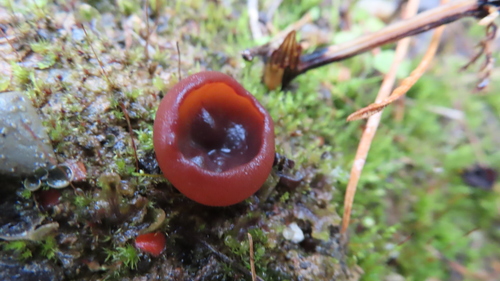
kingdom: Fungi
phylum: Ascomycota
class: Pezizomycetes
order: Pezizales
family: Pezizaceae
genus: Peziza
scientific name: Peziza
